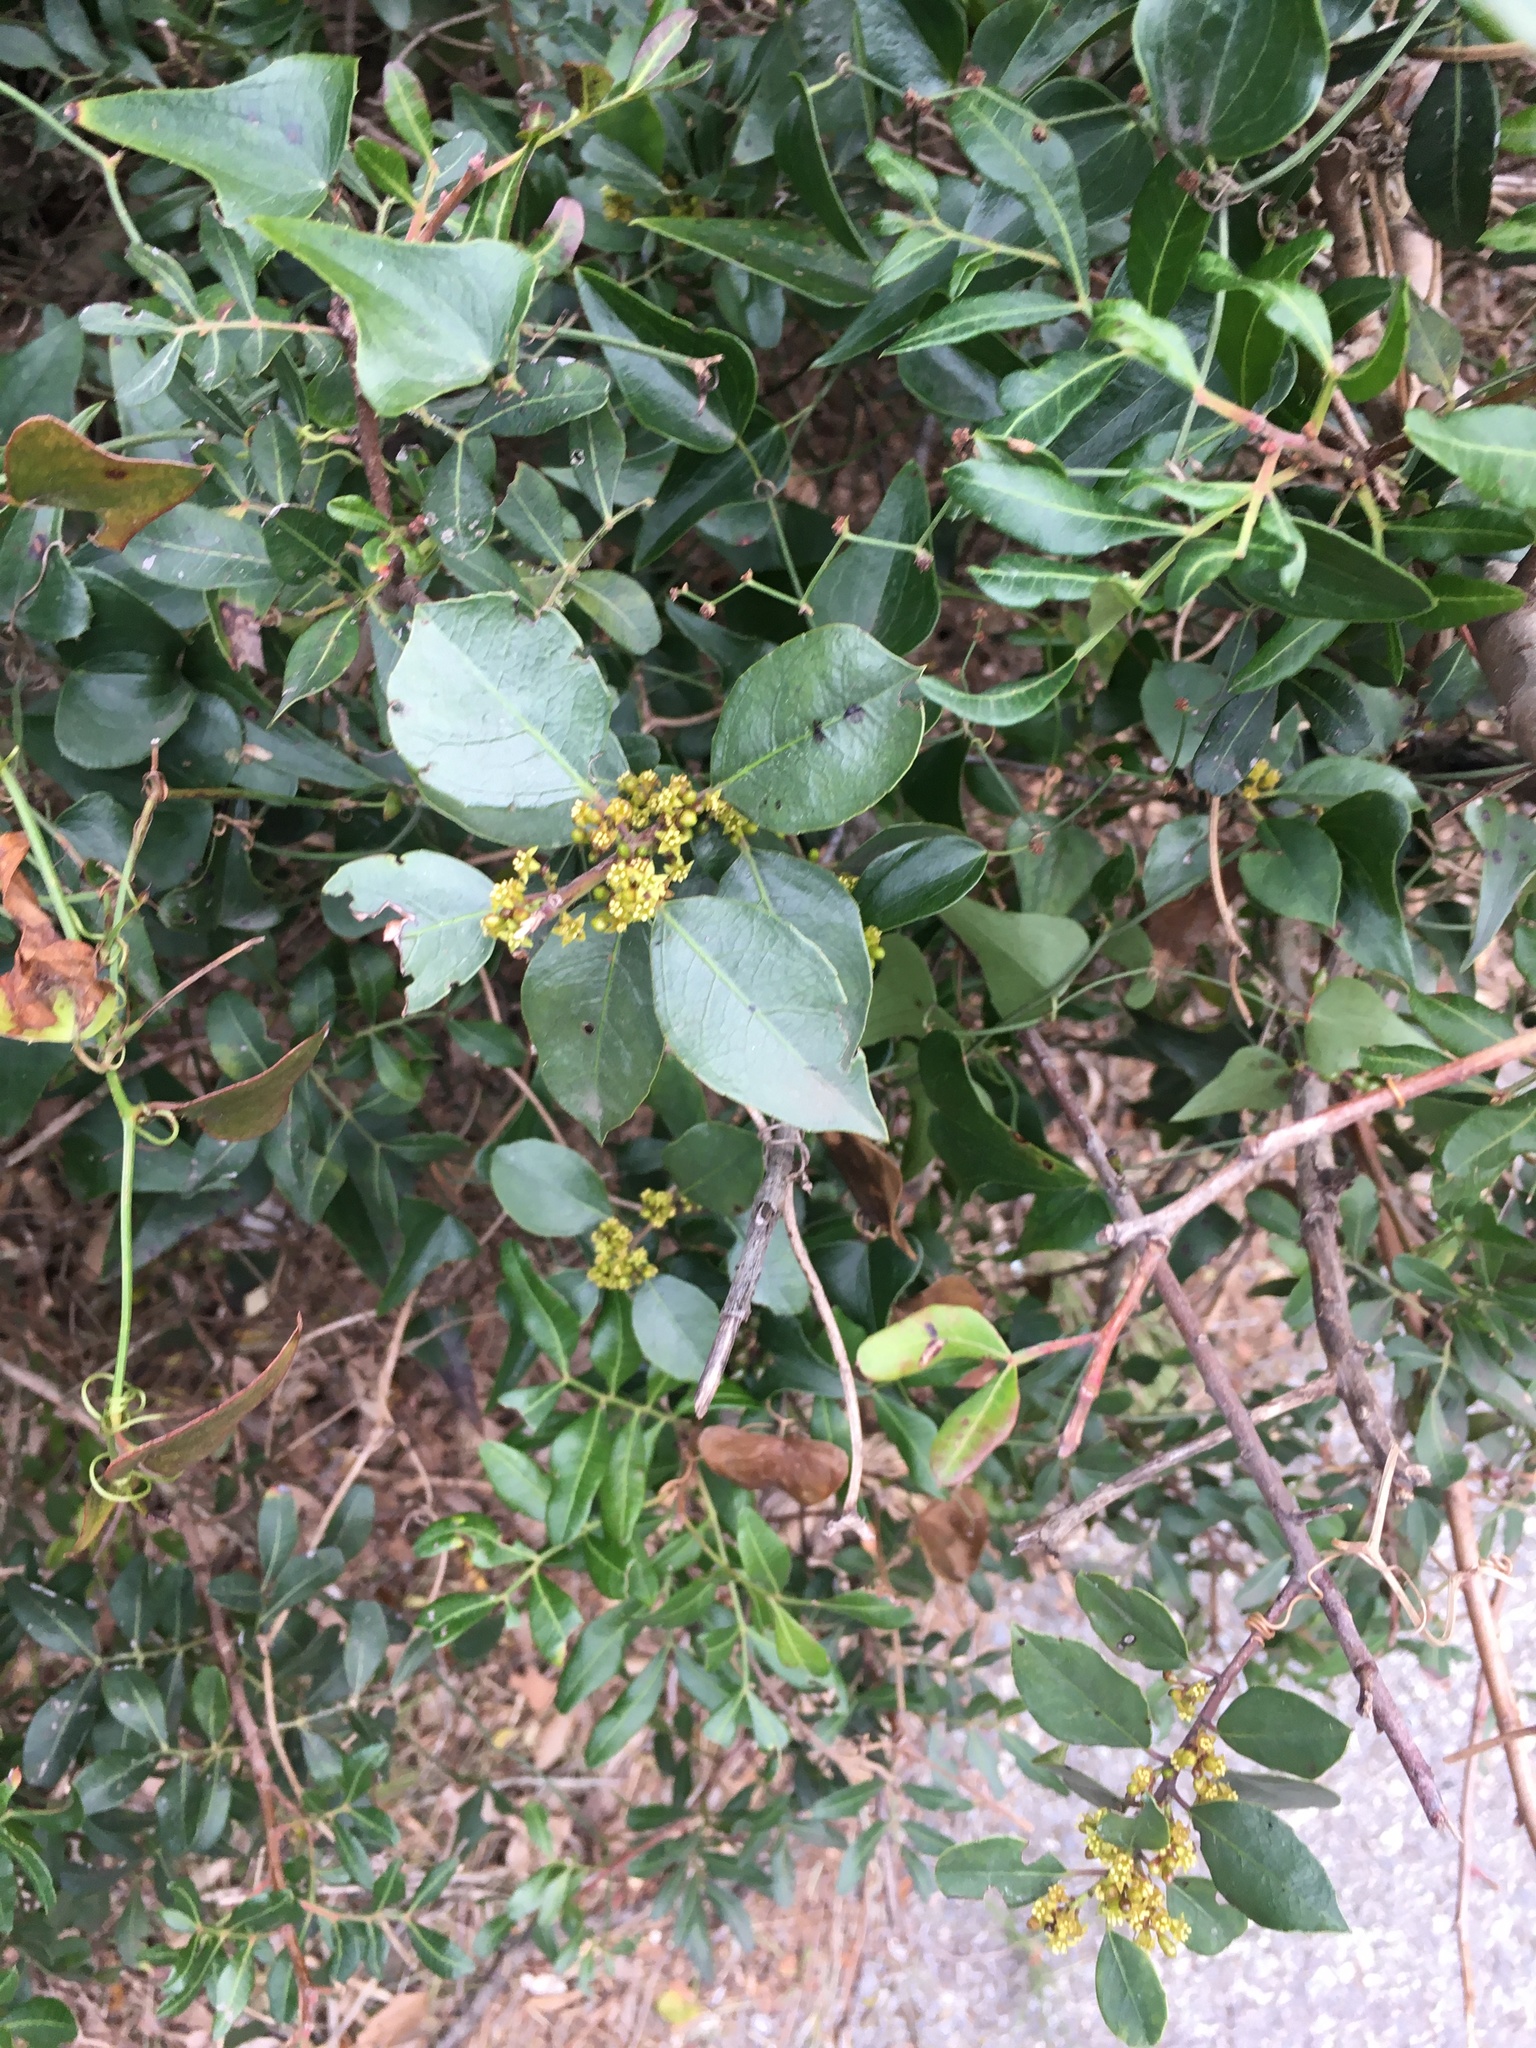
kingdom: Plantae
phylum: Tracheophyta
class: Magnoliopsida
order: Rosales
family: Rhamnaceae
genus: Rhamnus
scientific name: Rhamnus alaternus
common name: Mediterranean buckthorn
